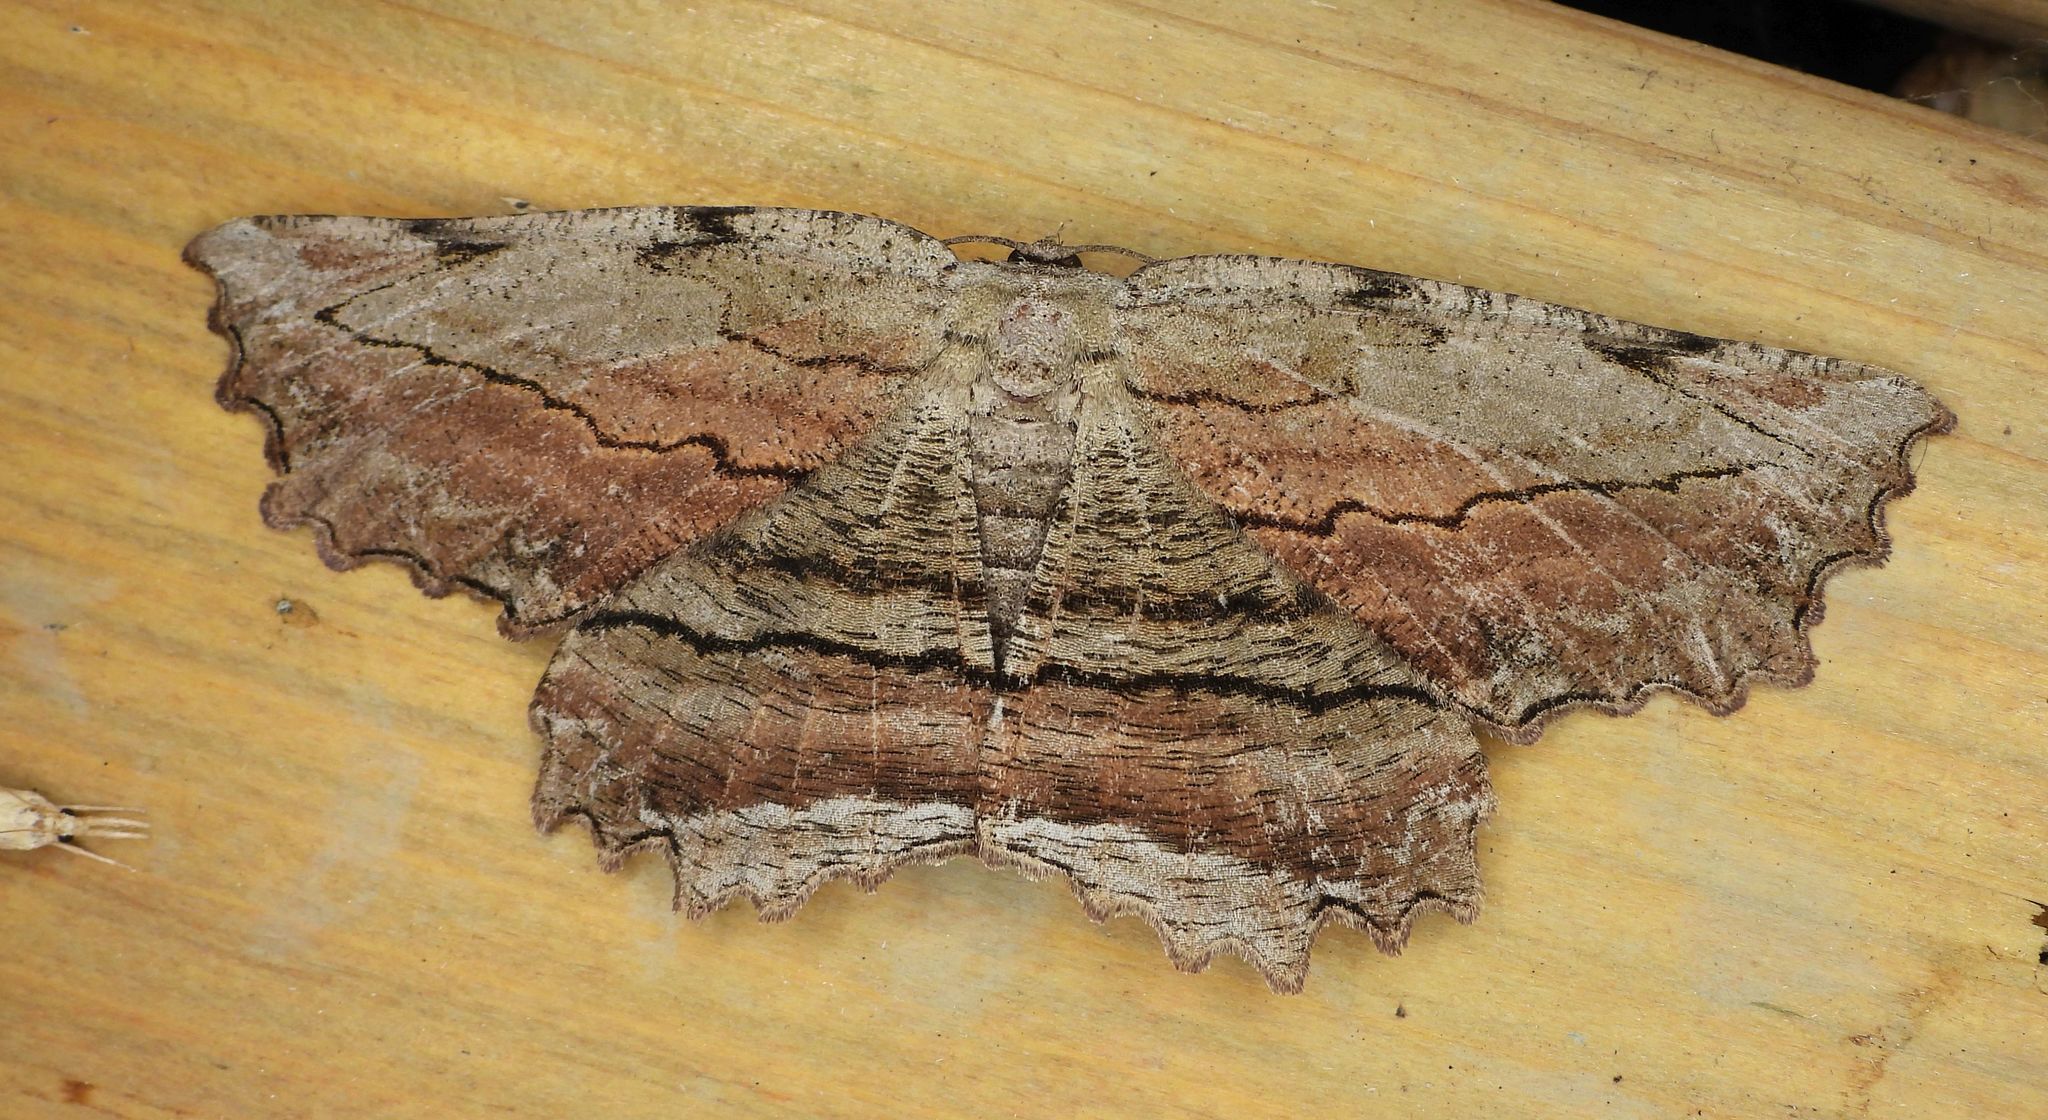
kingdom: Animalia
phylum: Arthropoda
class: Insecta
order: Lepidoptera
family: Geometridae
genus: Lytrosis
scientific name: Lytrosis unitaria
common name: Common lytrosis
